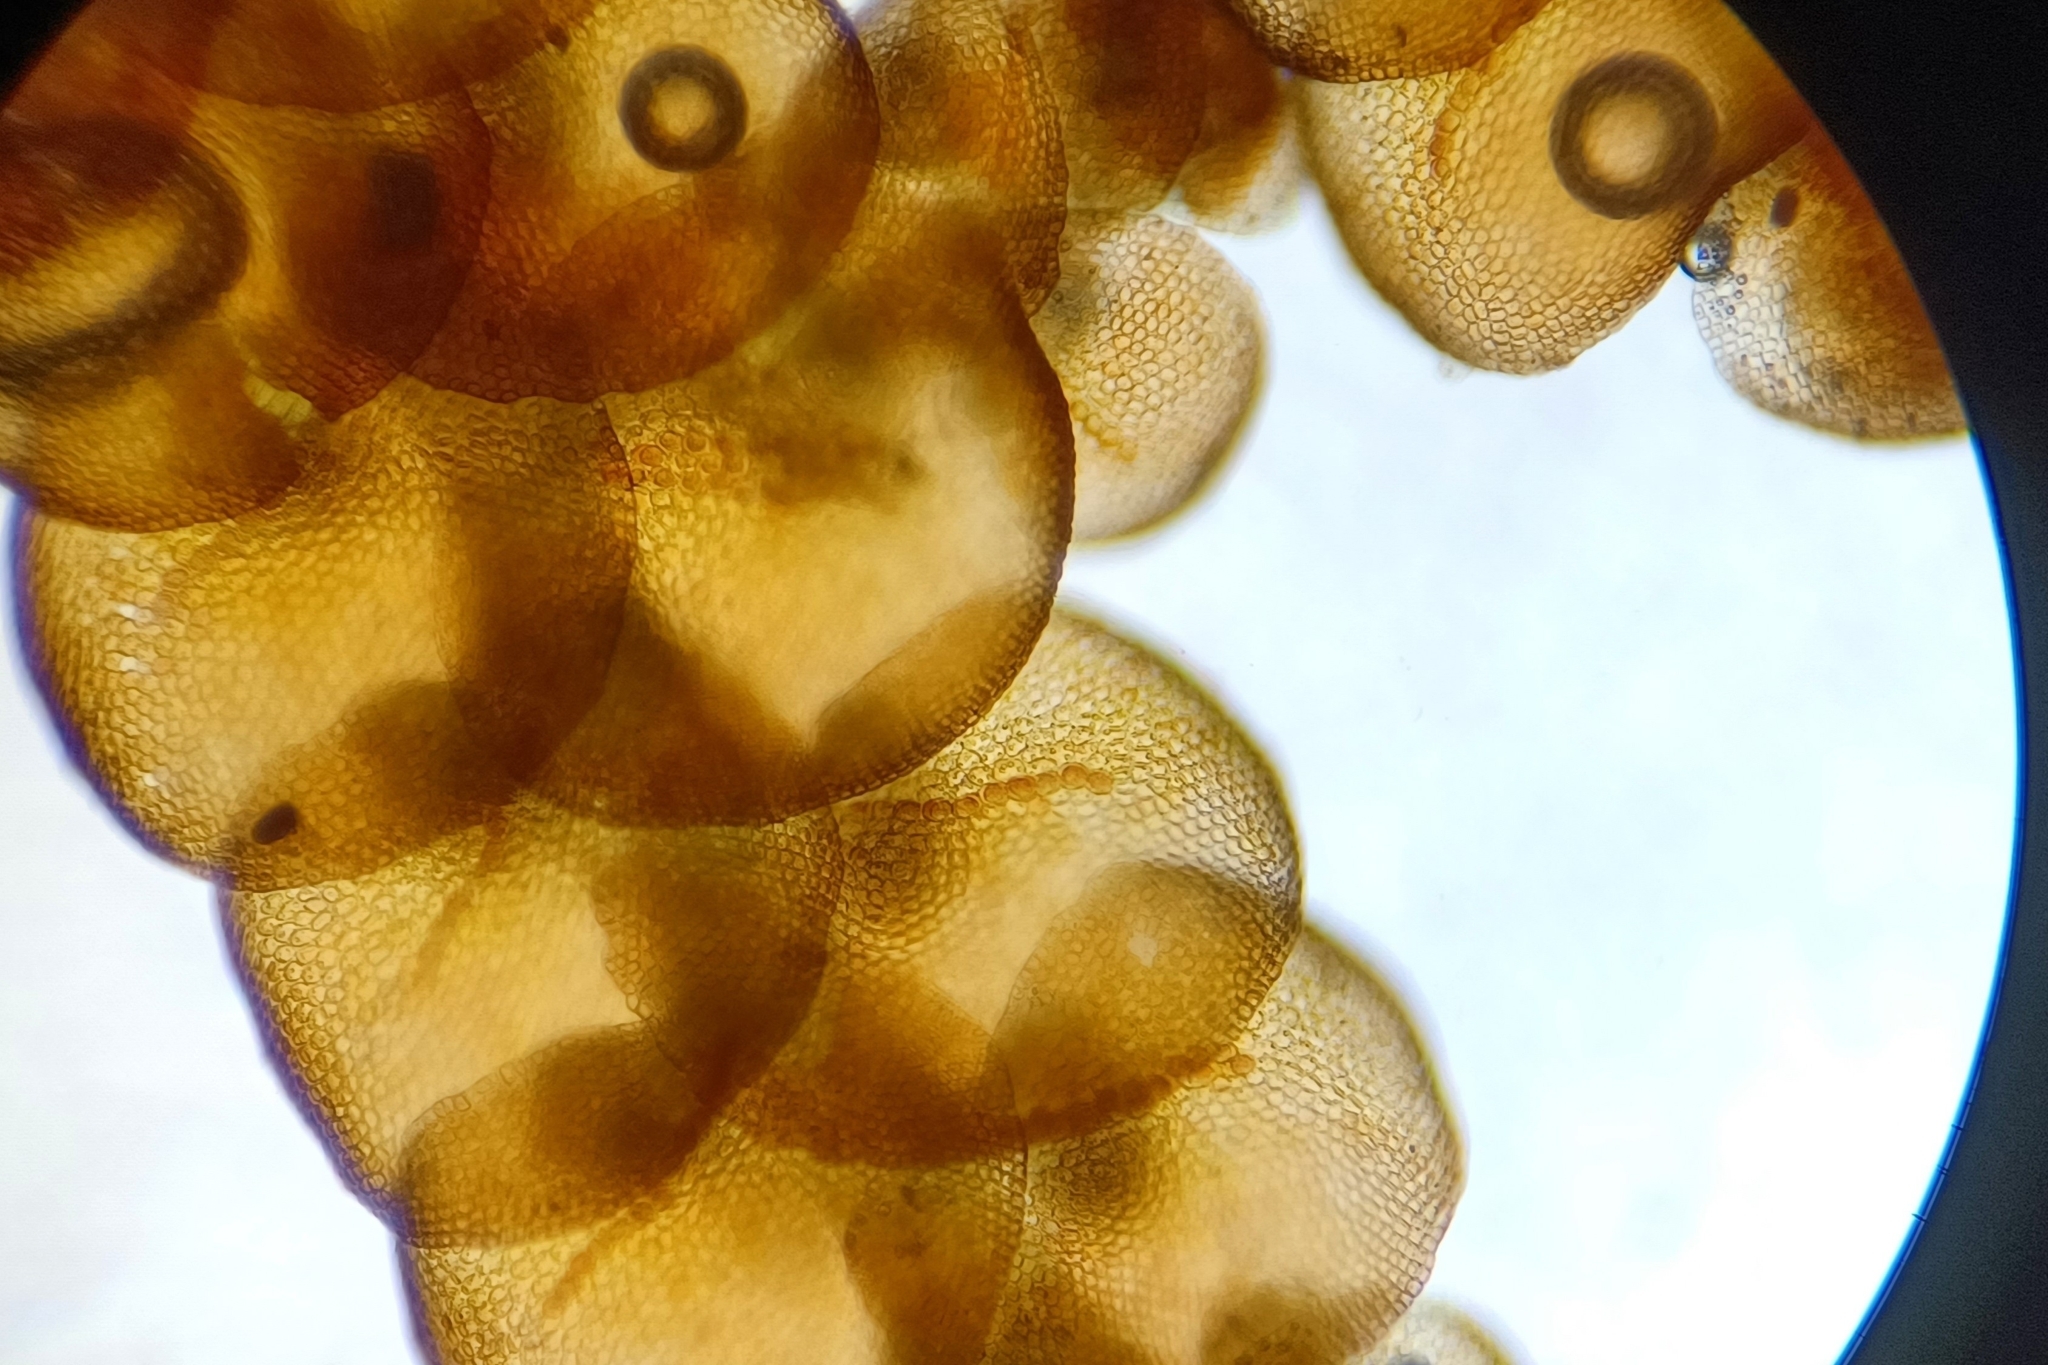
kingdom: Plantae
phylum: Marchantiophyta
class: Jungermanniopsida
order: Porellales
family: Frullaniaceae
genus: Frullania
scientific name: Frullania asagrayana
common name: Asa gray s scalewort
